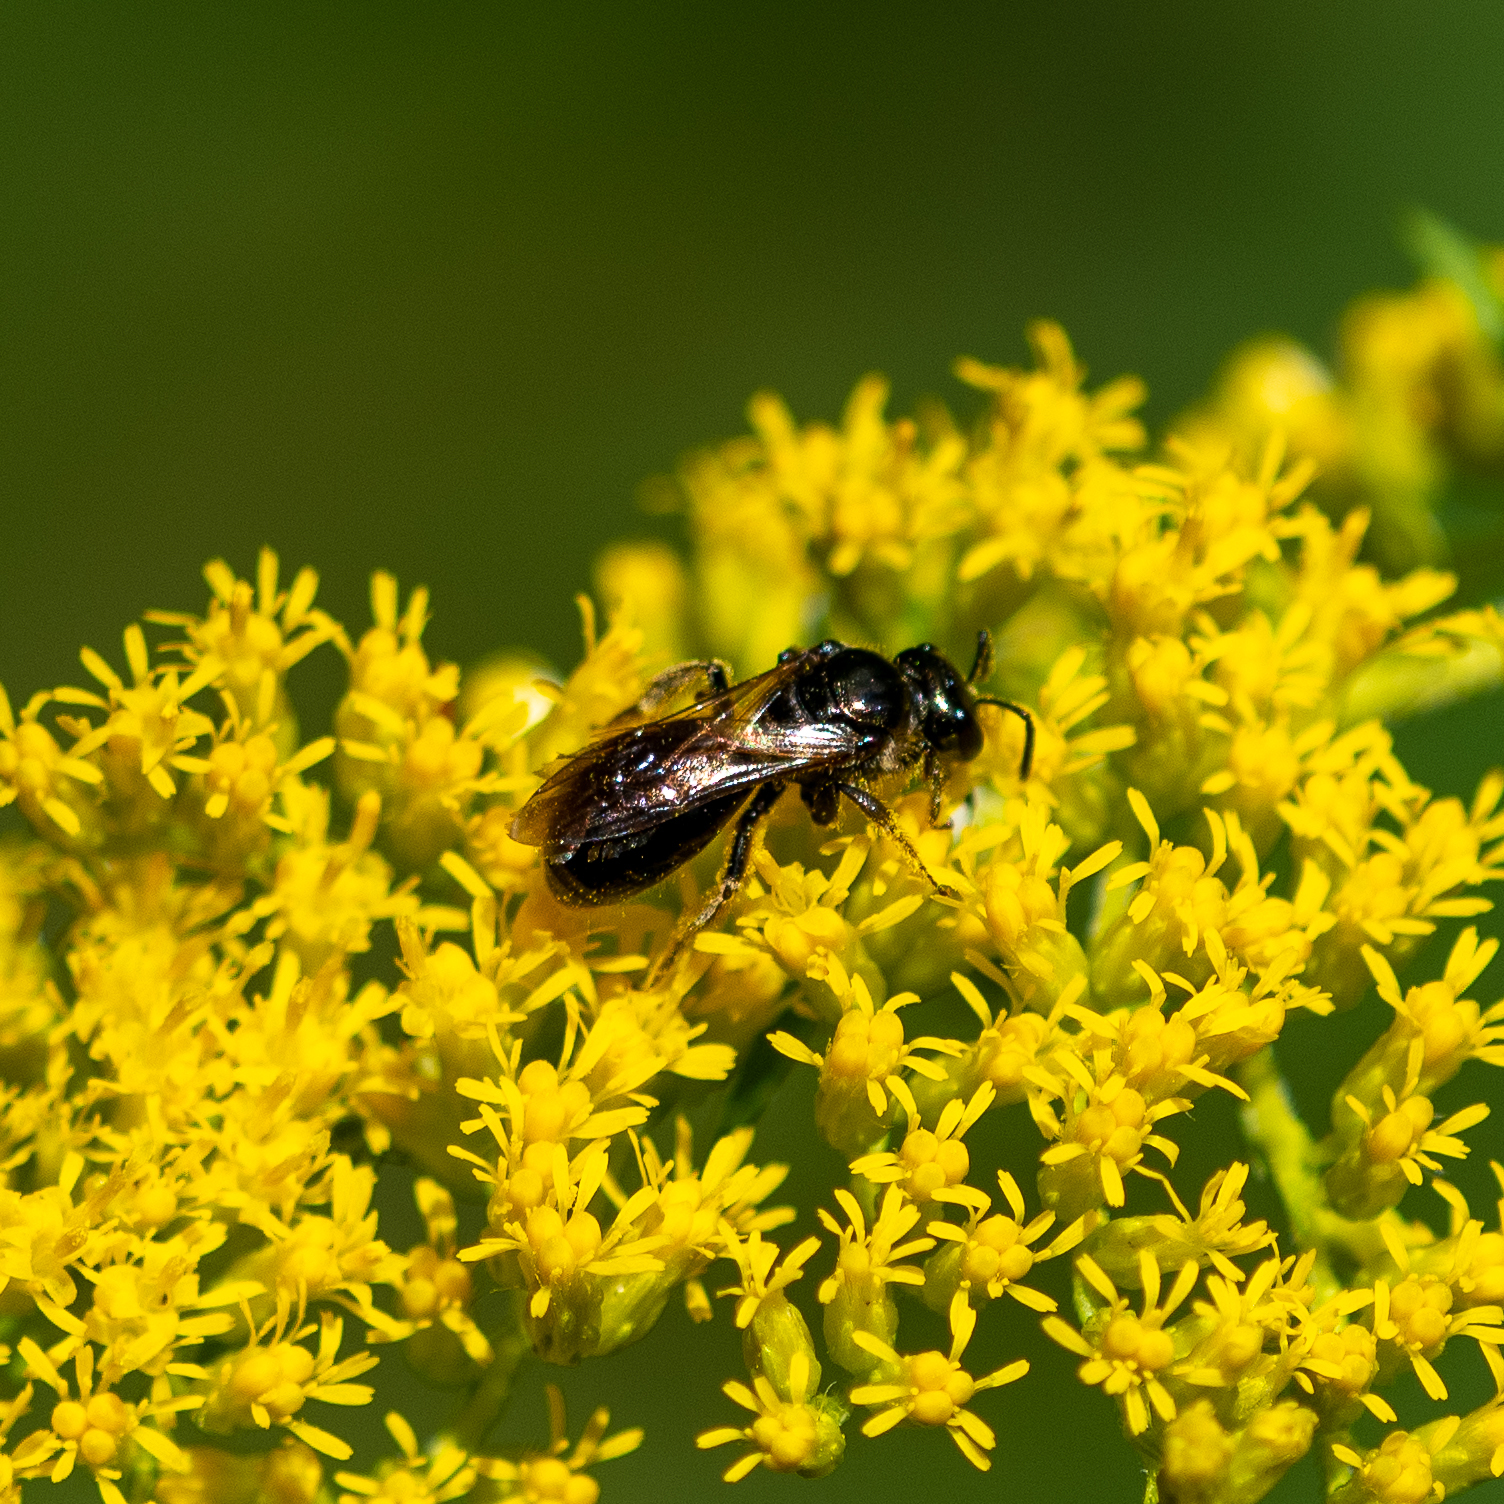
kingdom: Animalia
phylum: Arthropoda
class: Insecta
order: Hymenoptera
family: Halictidae
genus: Lasioglossum
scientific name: Lasioglossum nigroviride
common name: Black-and-green dialictus sweat bee
